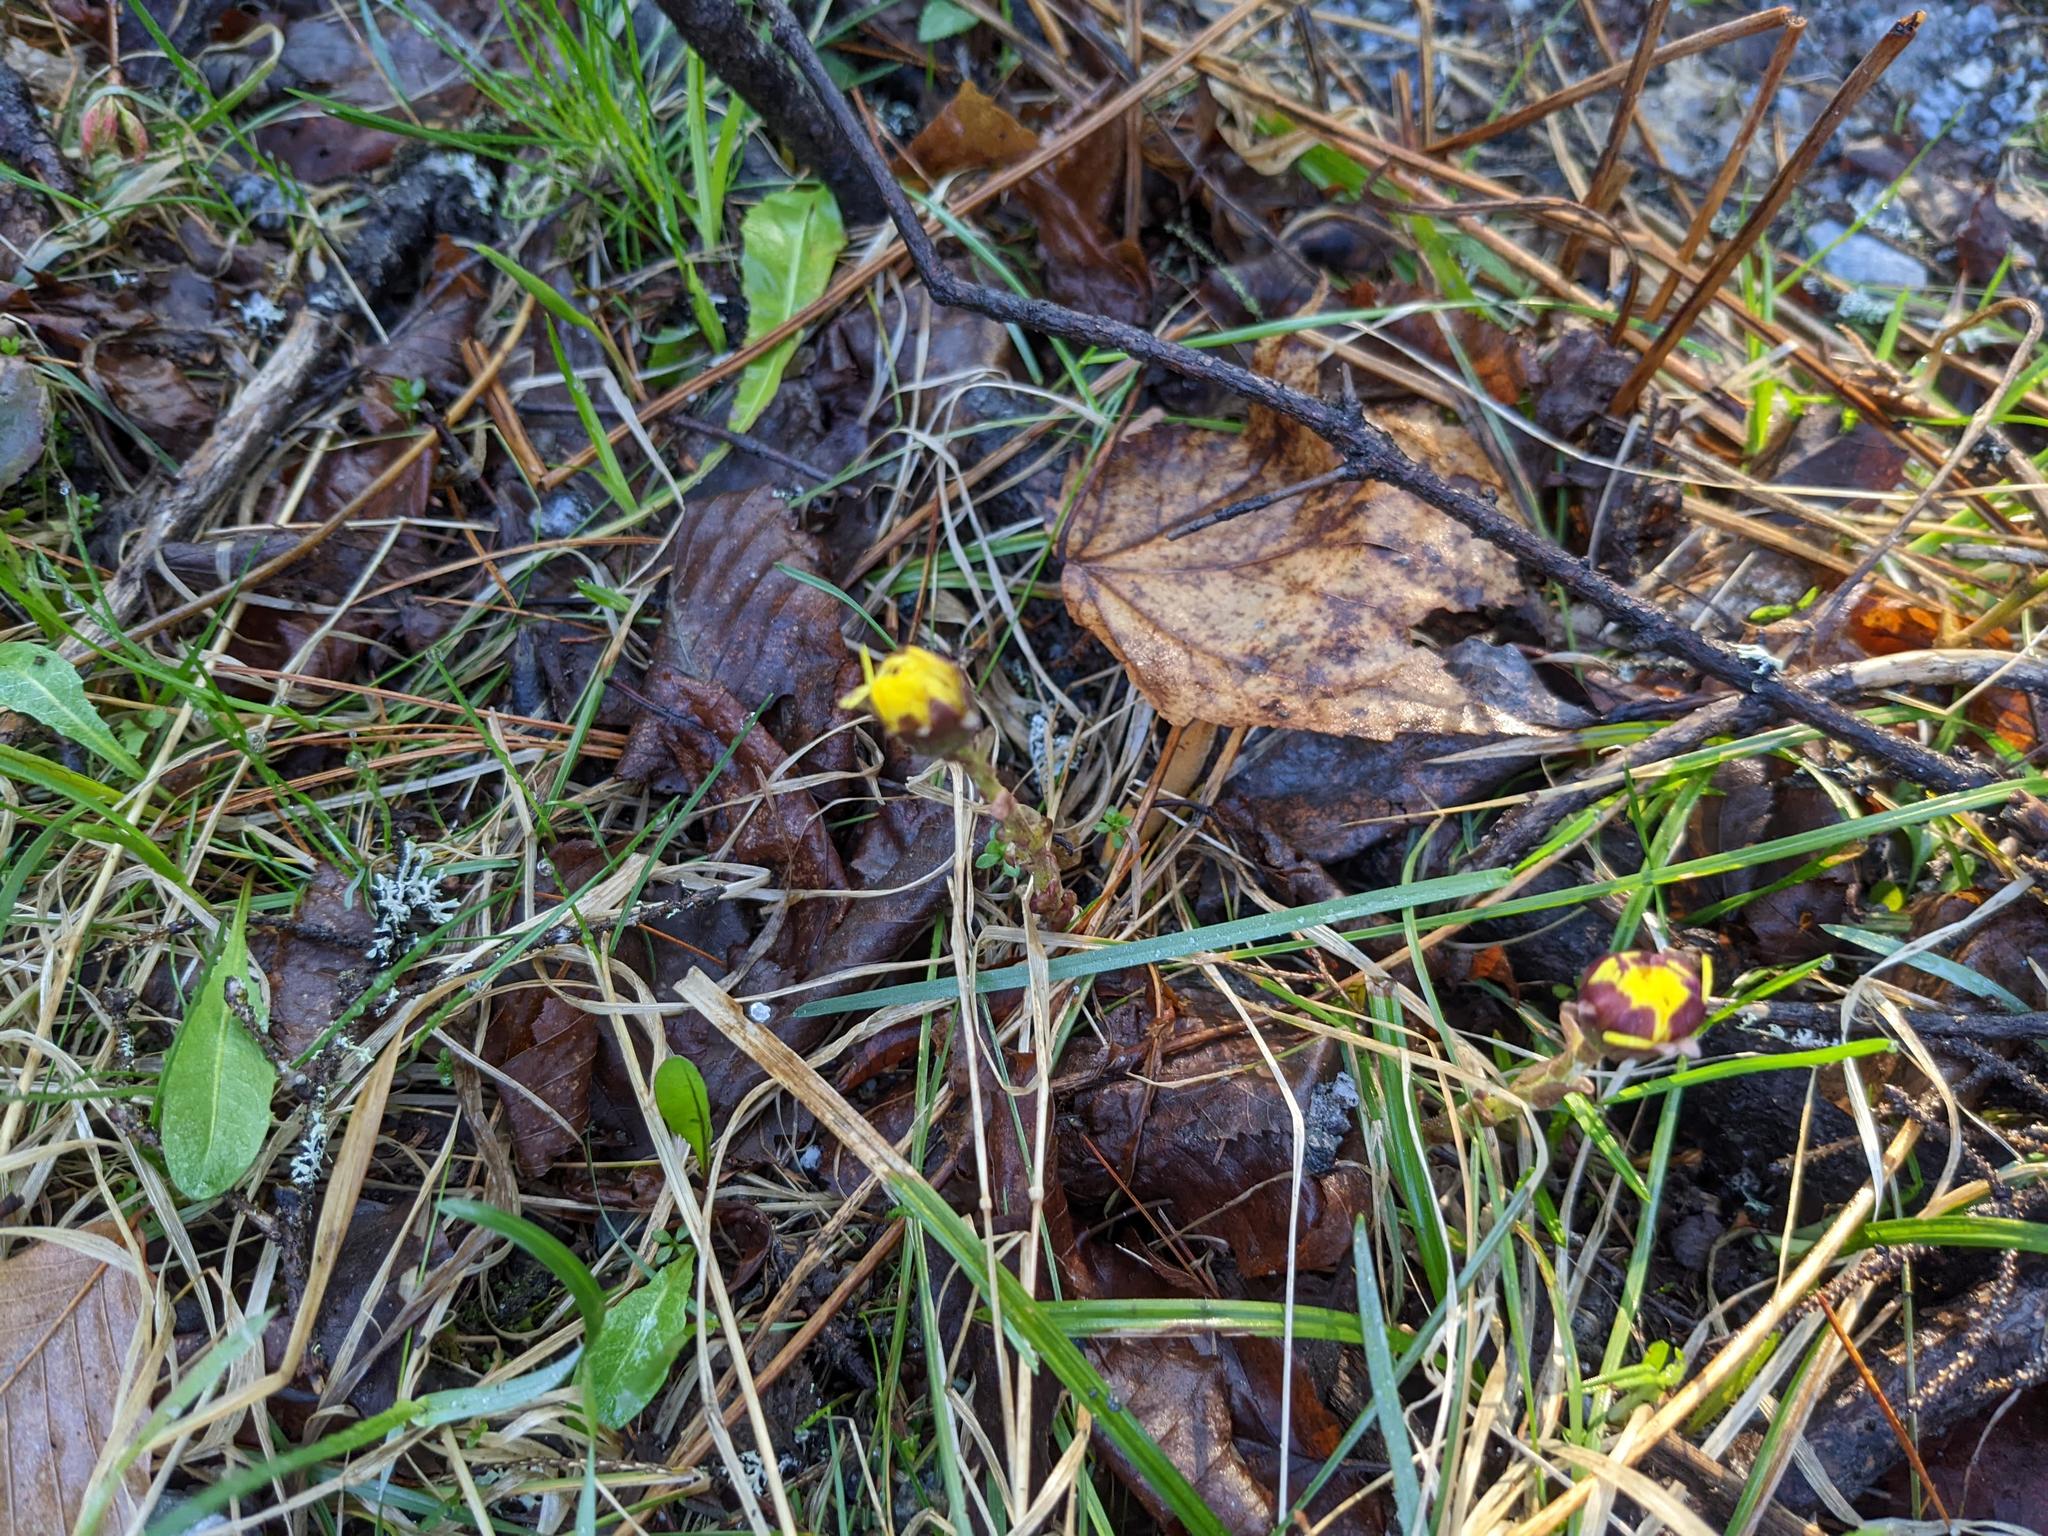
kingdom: Plantae
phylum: Tracheophyta
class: Magnoliopsida
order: Asterales
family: Asteraceae
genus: Tussilago
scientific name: Tussilago farfara
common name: Coltsfoot
